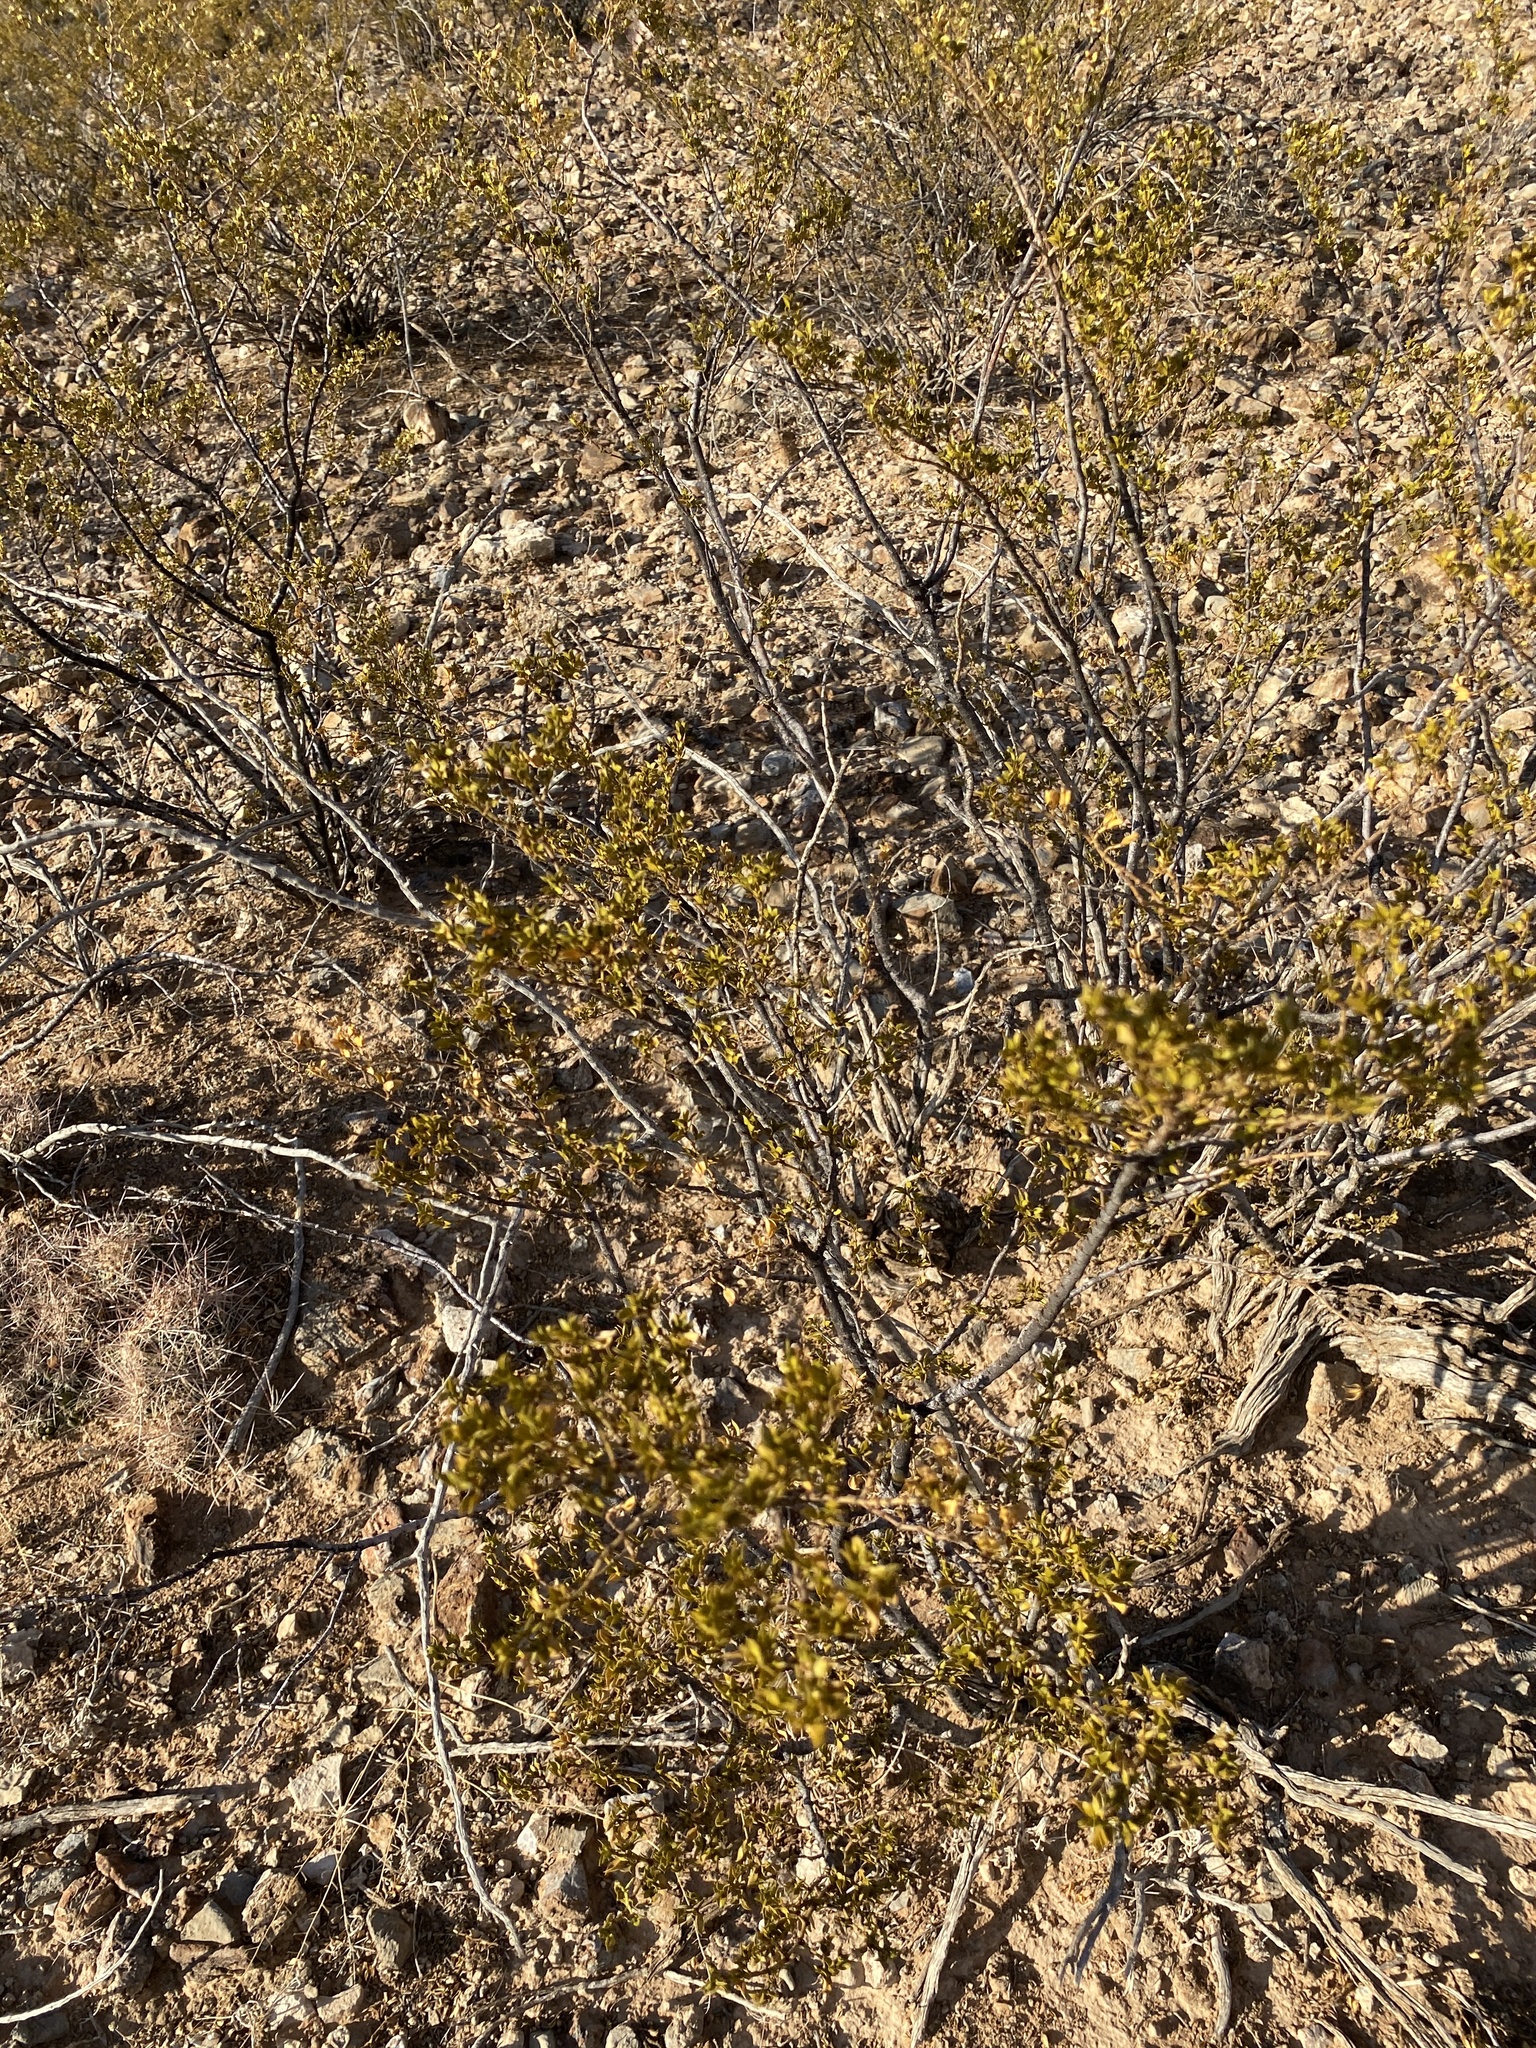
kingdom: Plantae
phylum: Tracheophyta
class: Magnoliopsida
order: Zygophyllales
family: Zygophyllaceae
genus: Larrea
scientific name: Larrea tridentata
